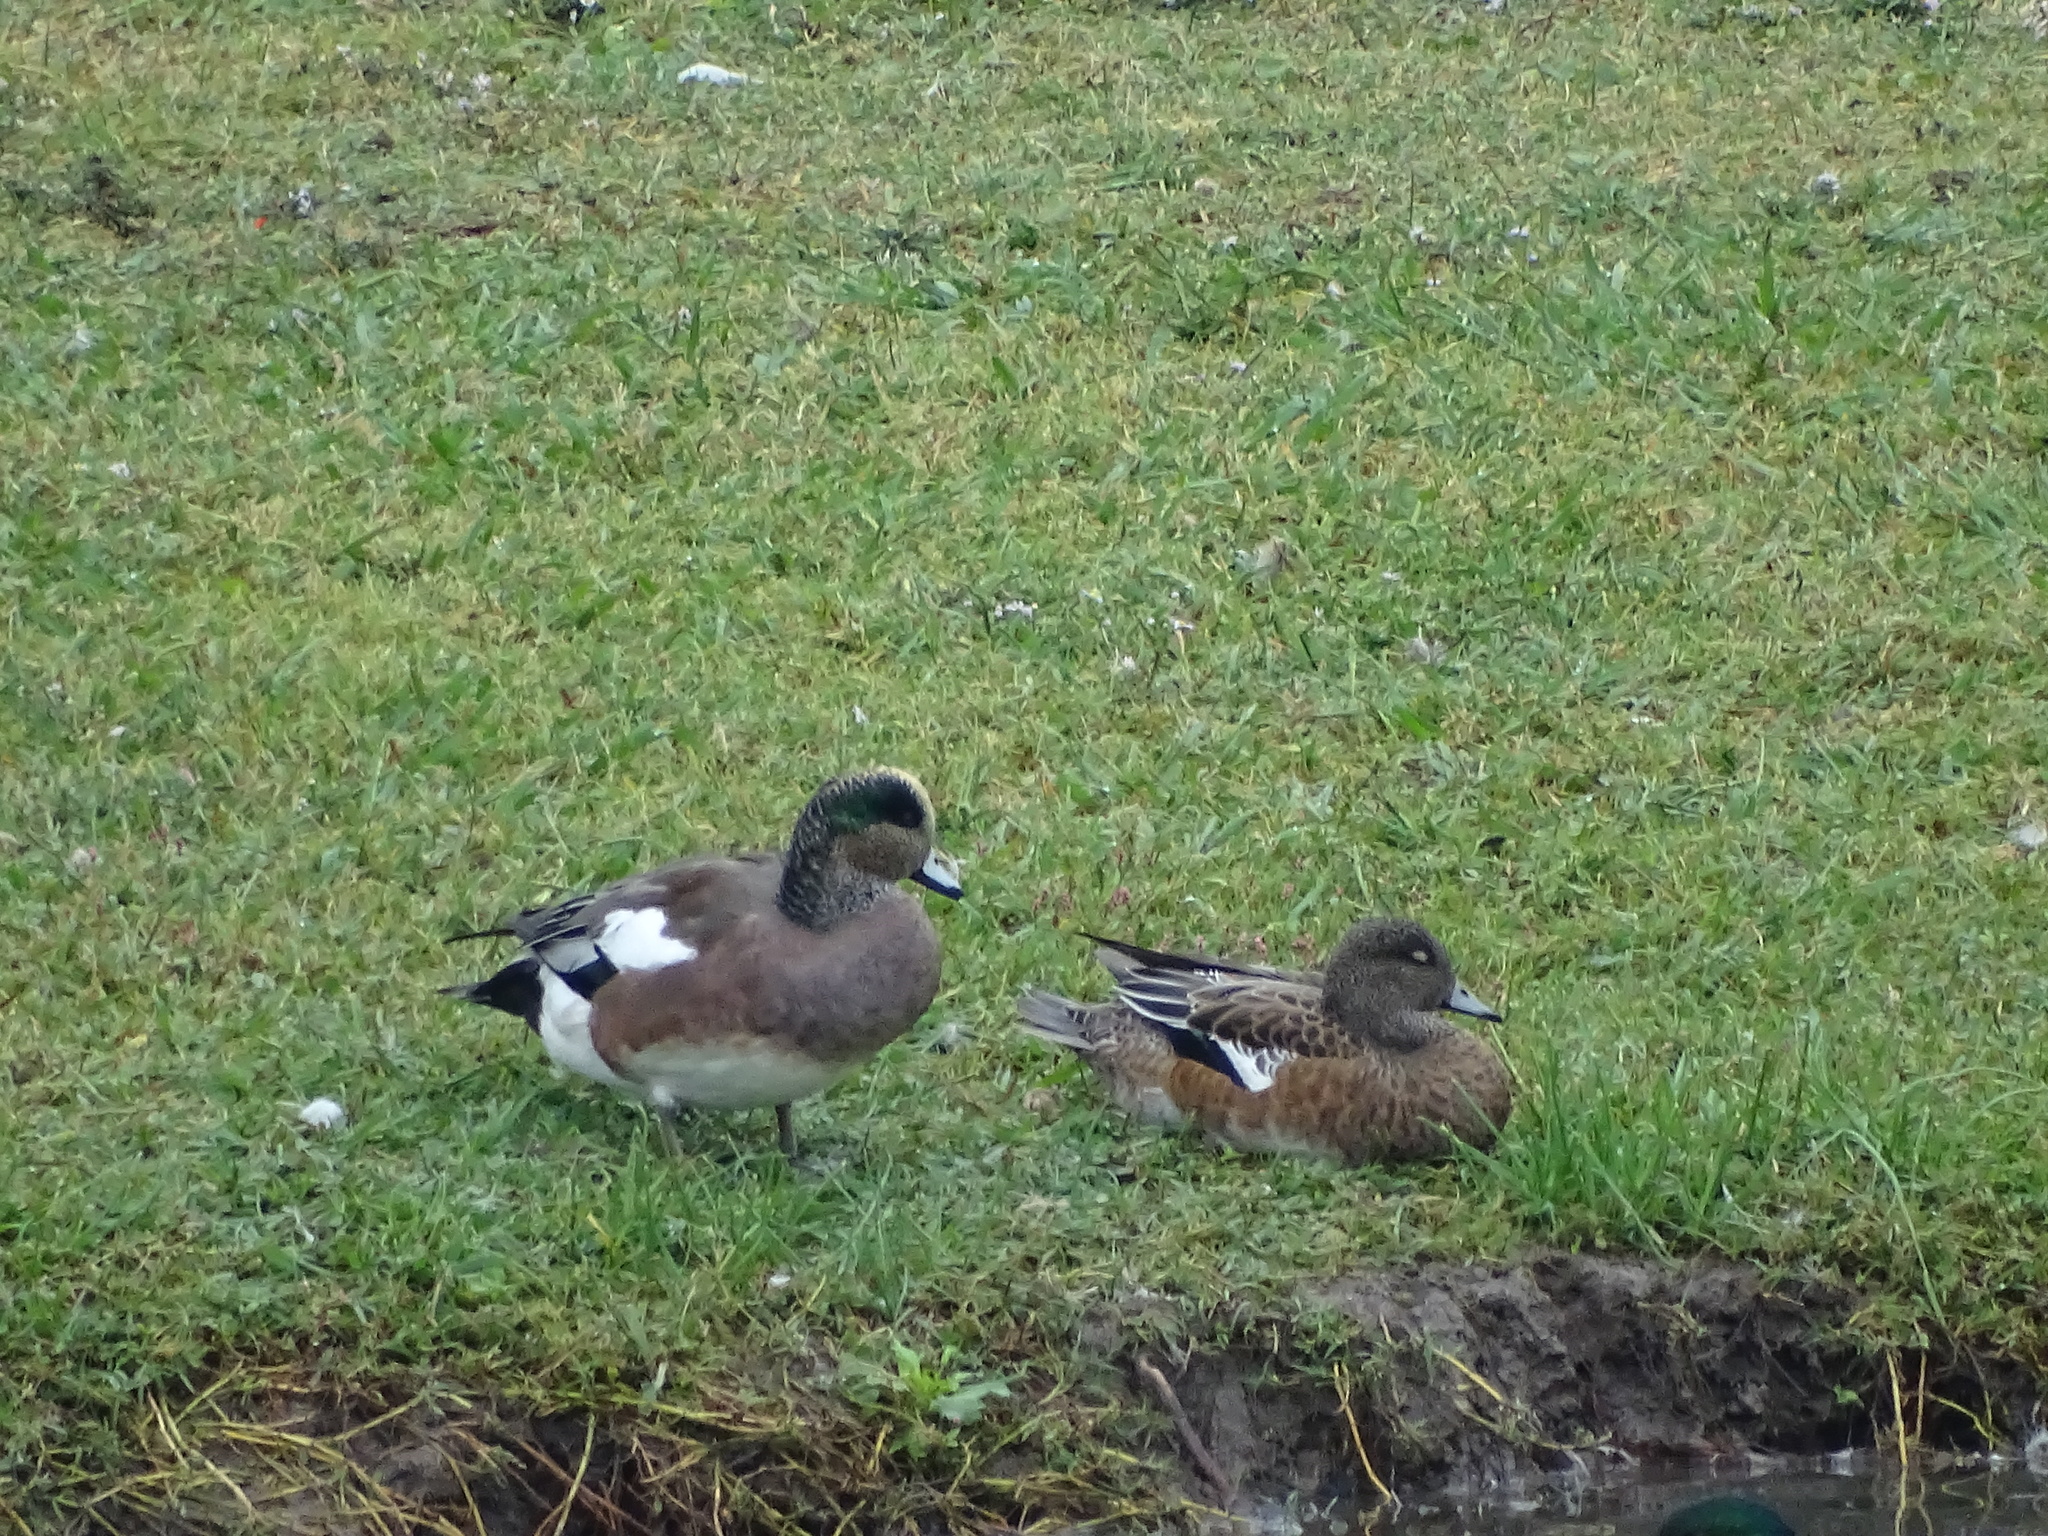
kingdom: Animalia
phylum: Chordata
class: Aves
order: Anseriformes
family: Anatidae
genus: Mareca
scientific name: Mareca americana
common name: American wigeon
